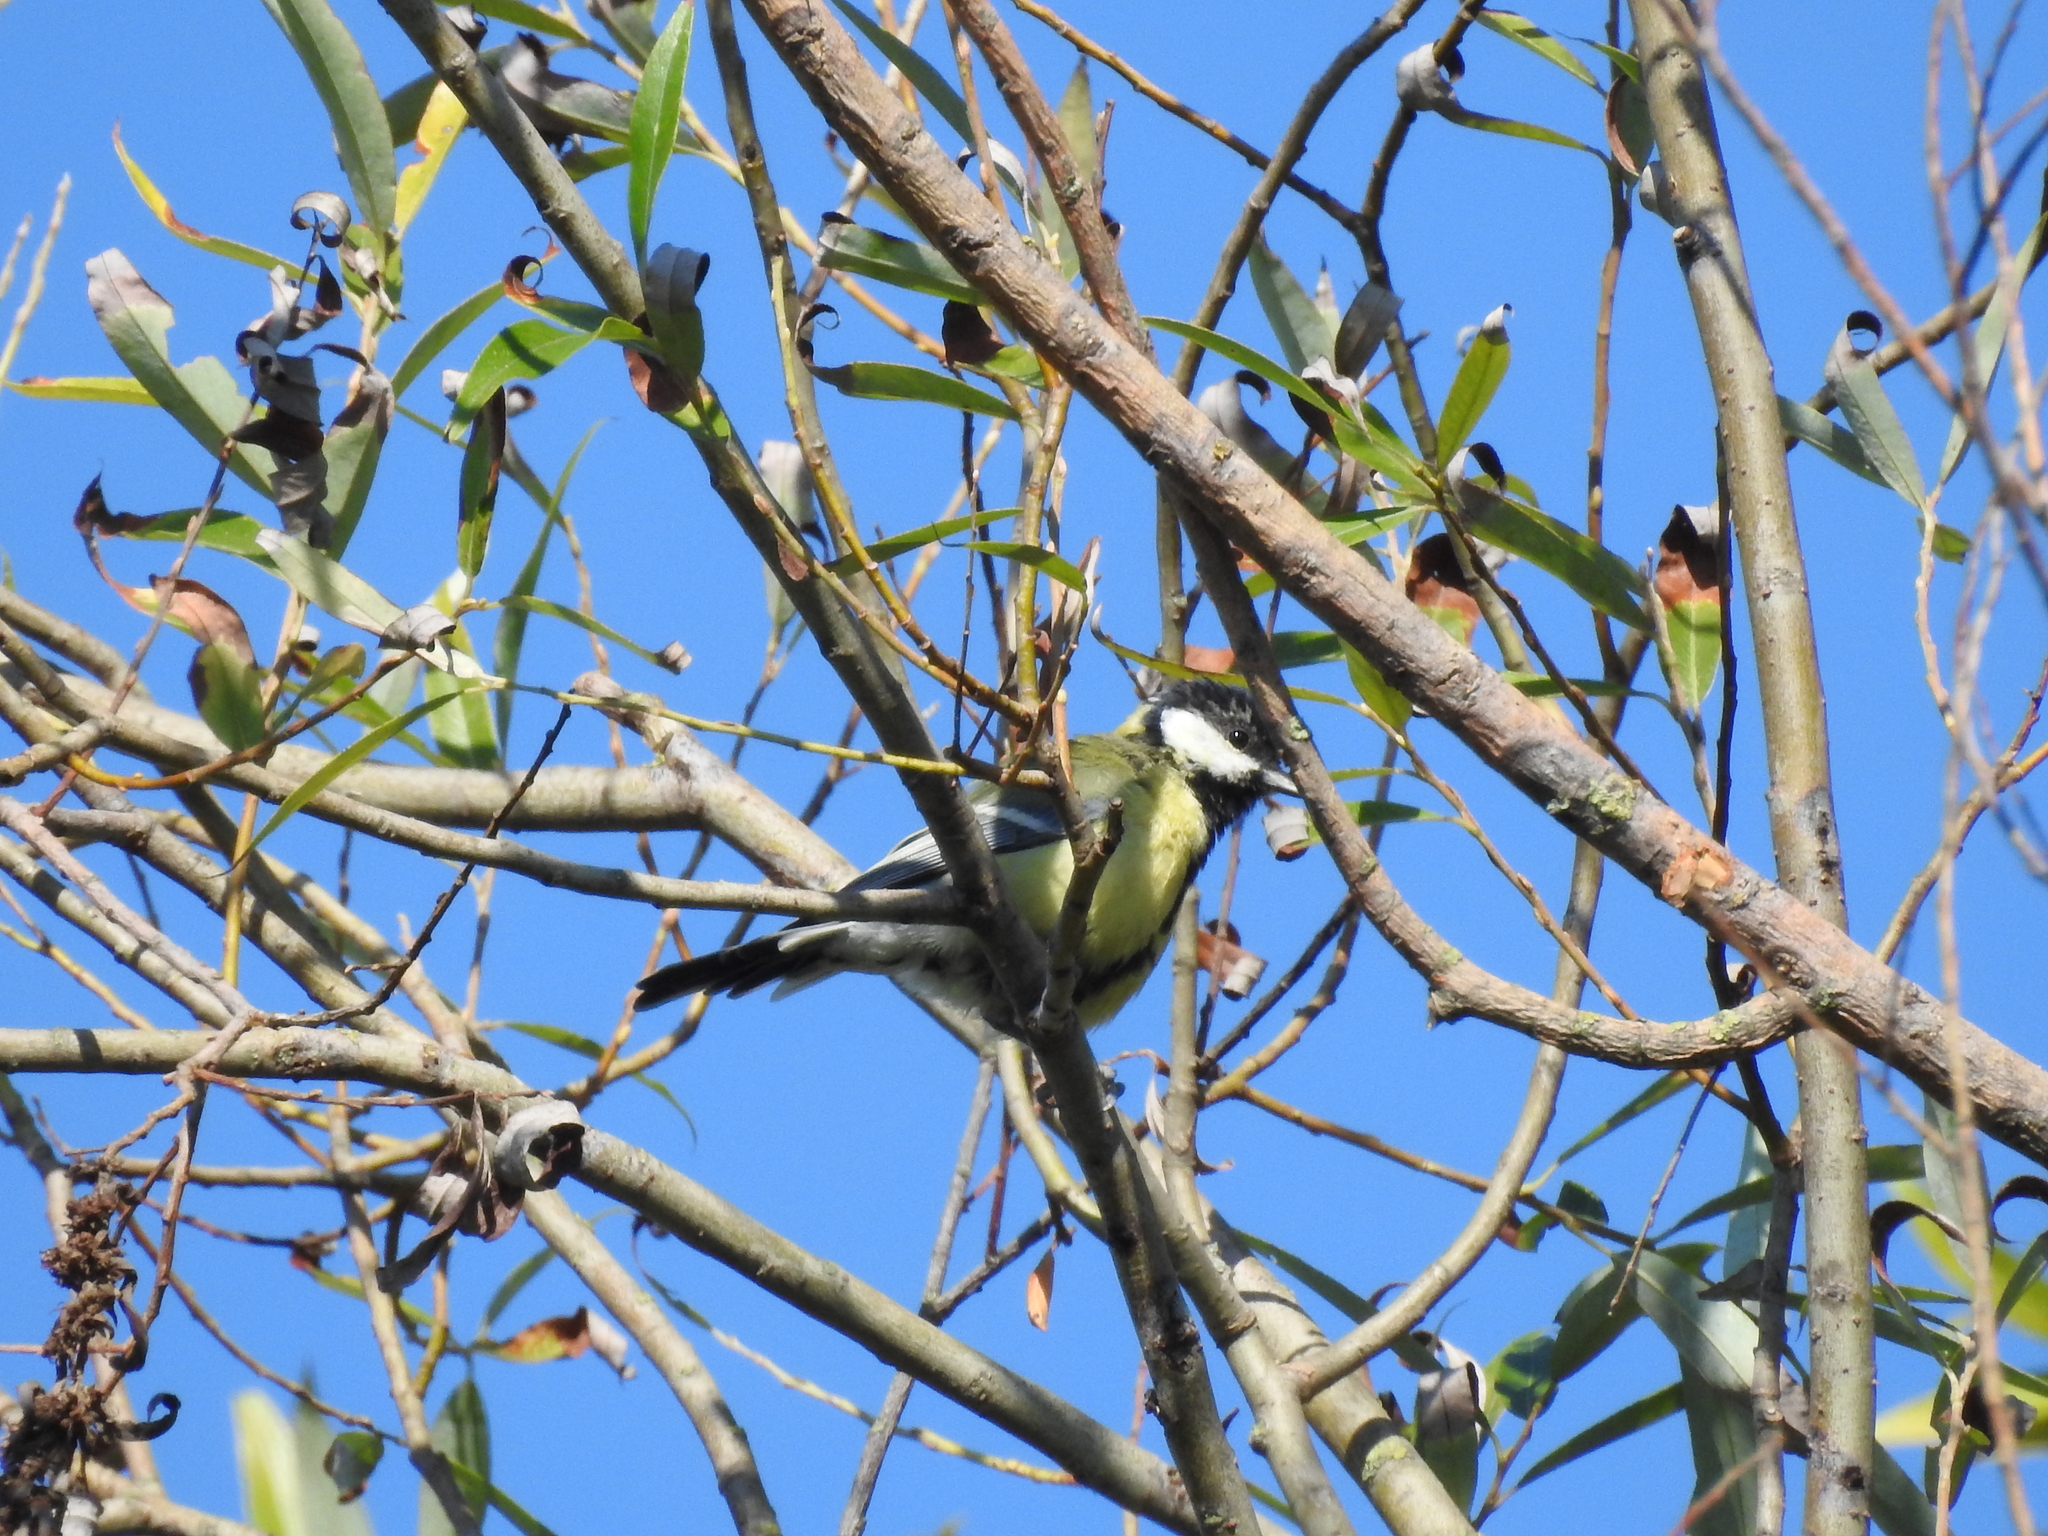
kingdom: Animalia
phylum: Chordata
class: Aves
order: Passeriformes
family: Paridae
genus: Parus
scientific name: Parus major
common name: Great tit
